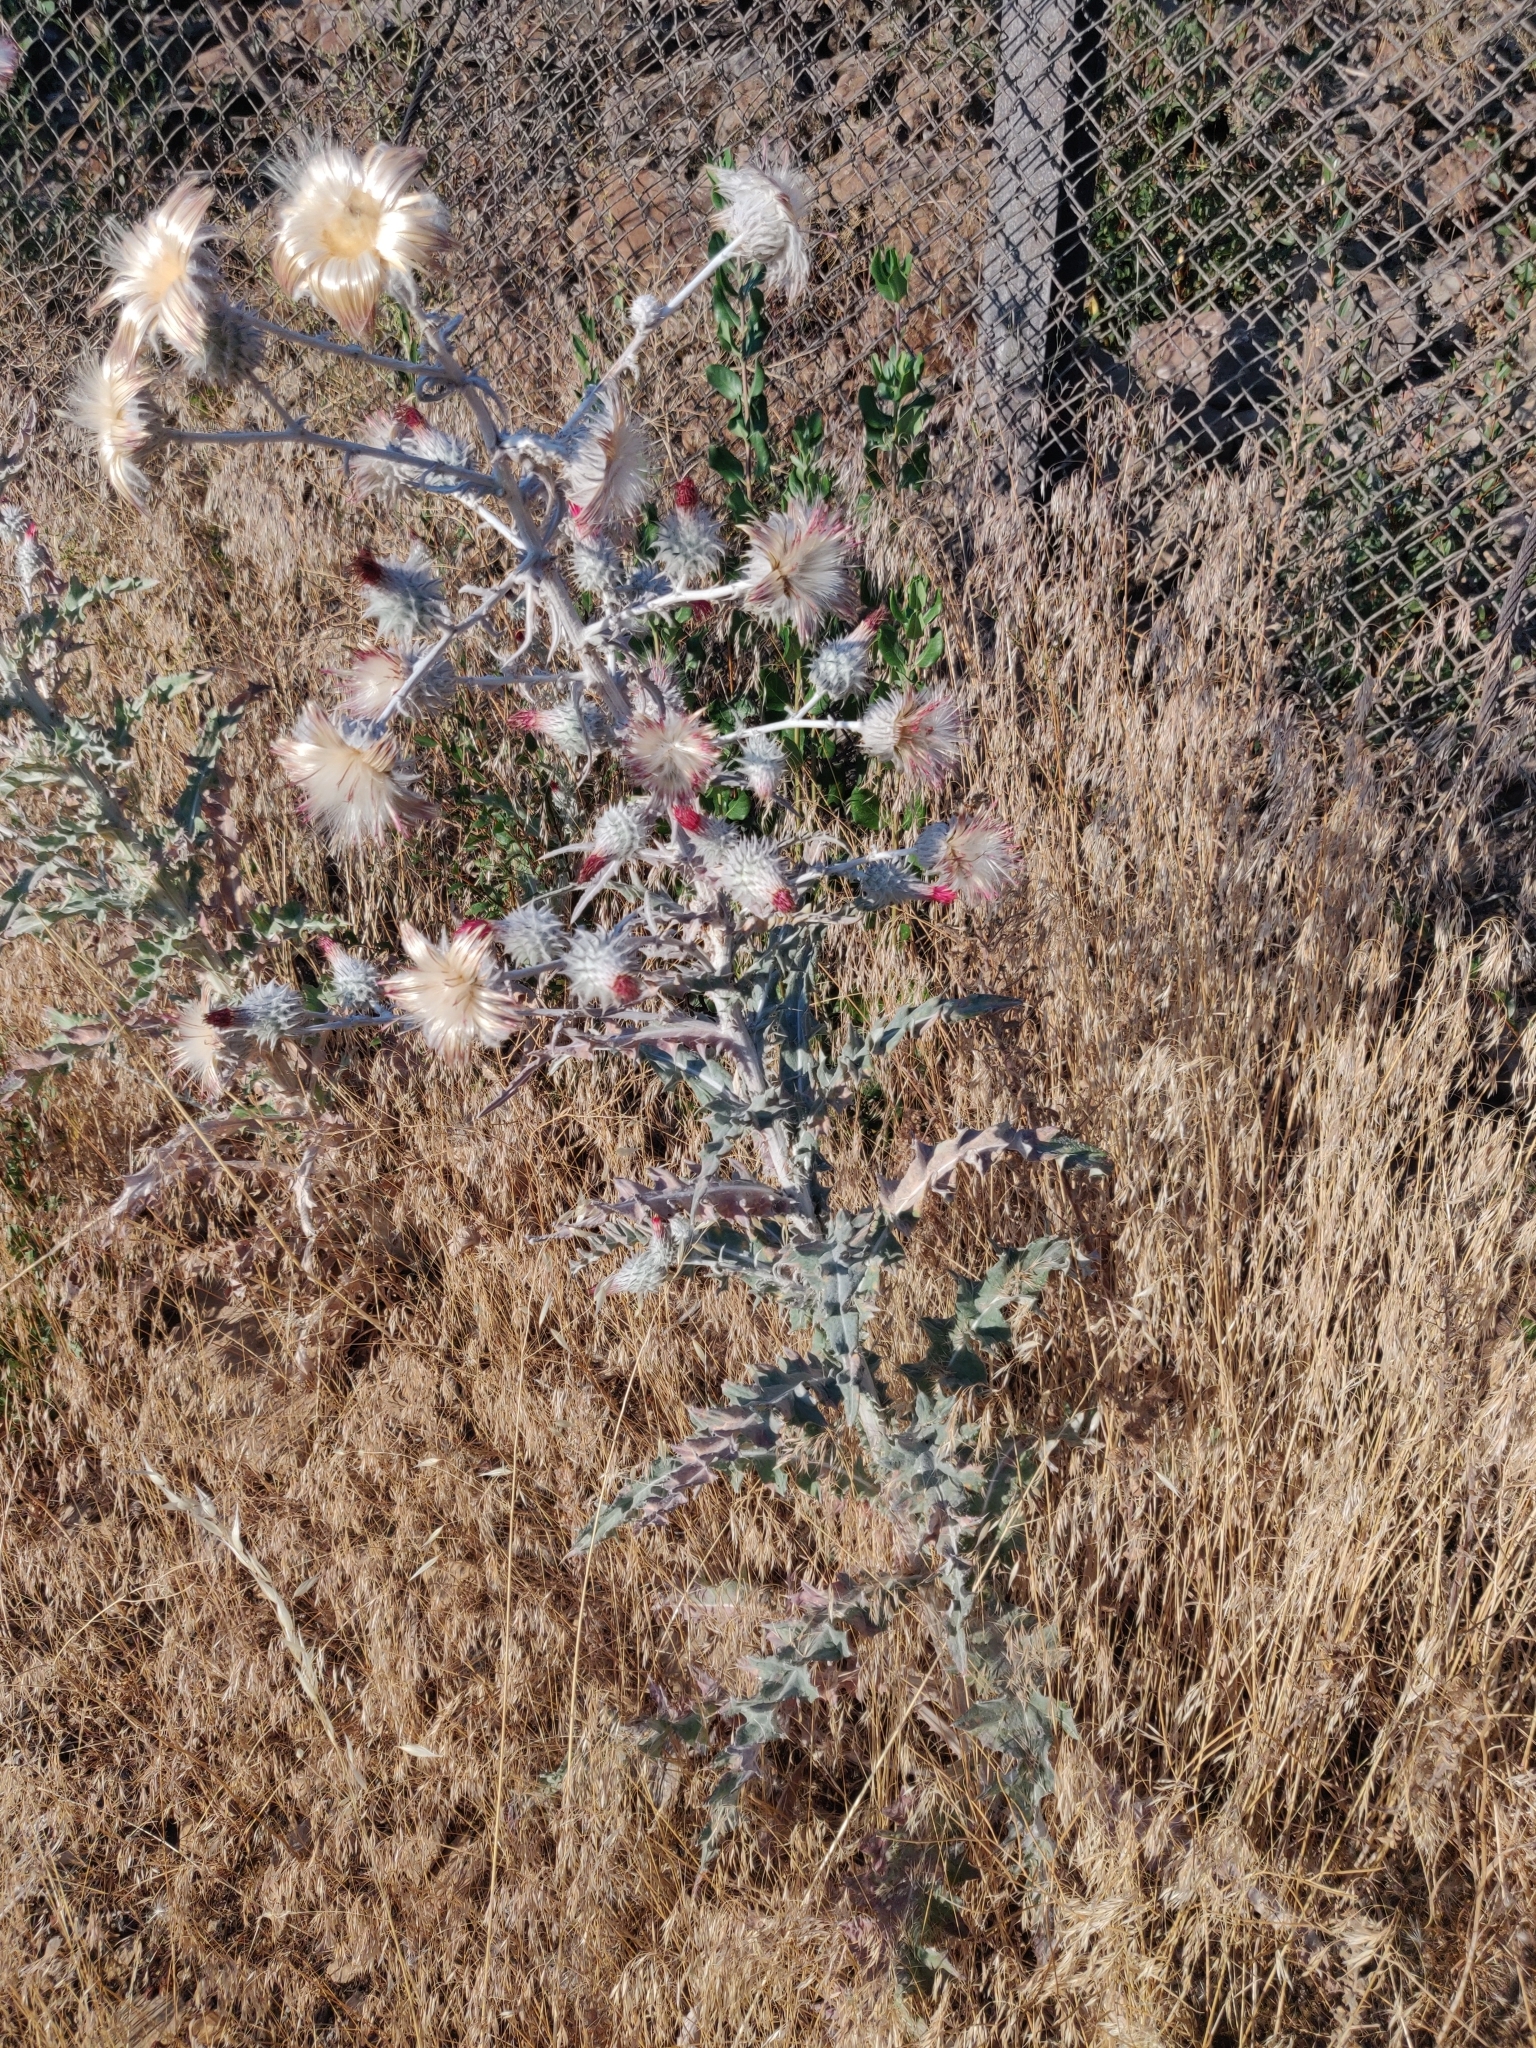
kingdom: Plantae
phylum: Tracheophyta
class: Magnoliopsida
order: Asterales
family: Asteraceae
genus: Cirsium
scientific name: Cirsium occidentale
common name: Western thistle
